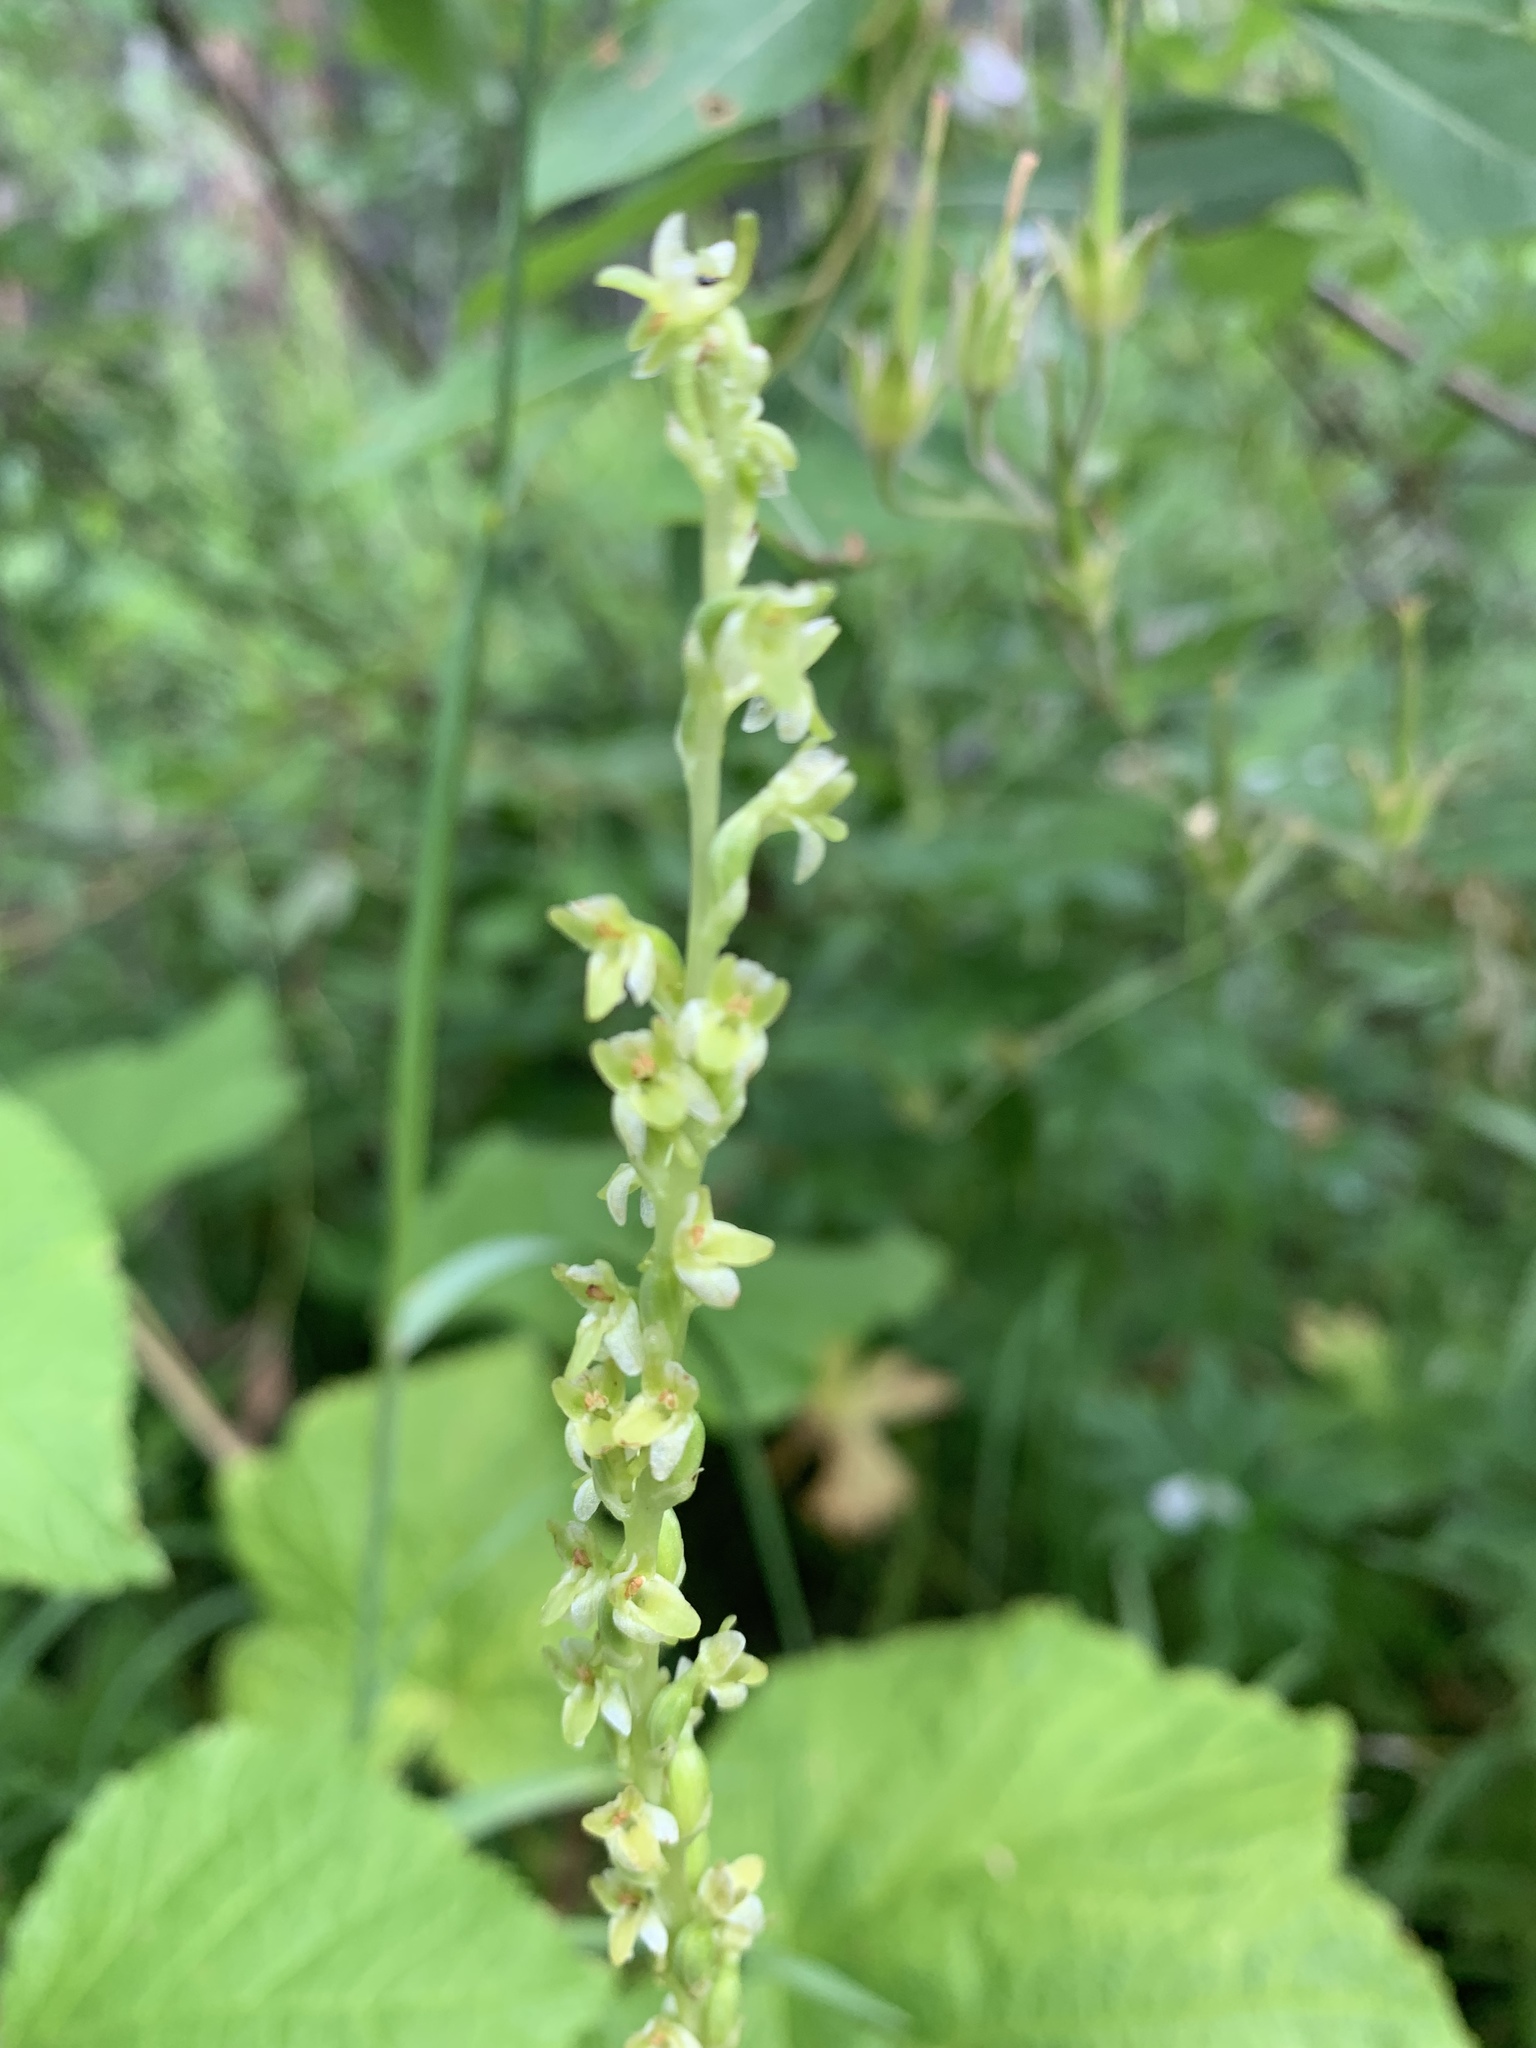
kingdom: Plantae
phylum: Tracheophyta
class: Liliopsida
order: Asparagales
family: Orchidaceae
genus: Platanthera
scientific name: Platanthera unalascensis
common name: Alaska bog orchid
